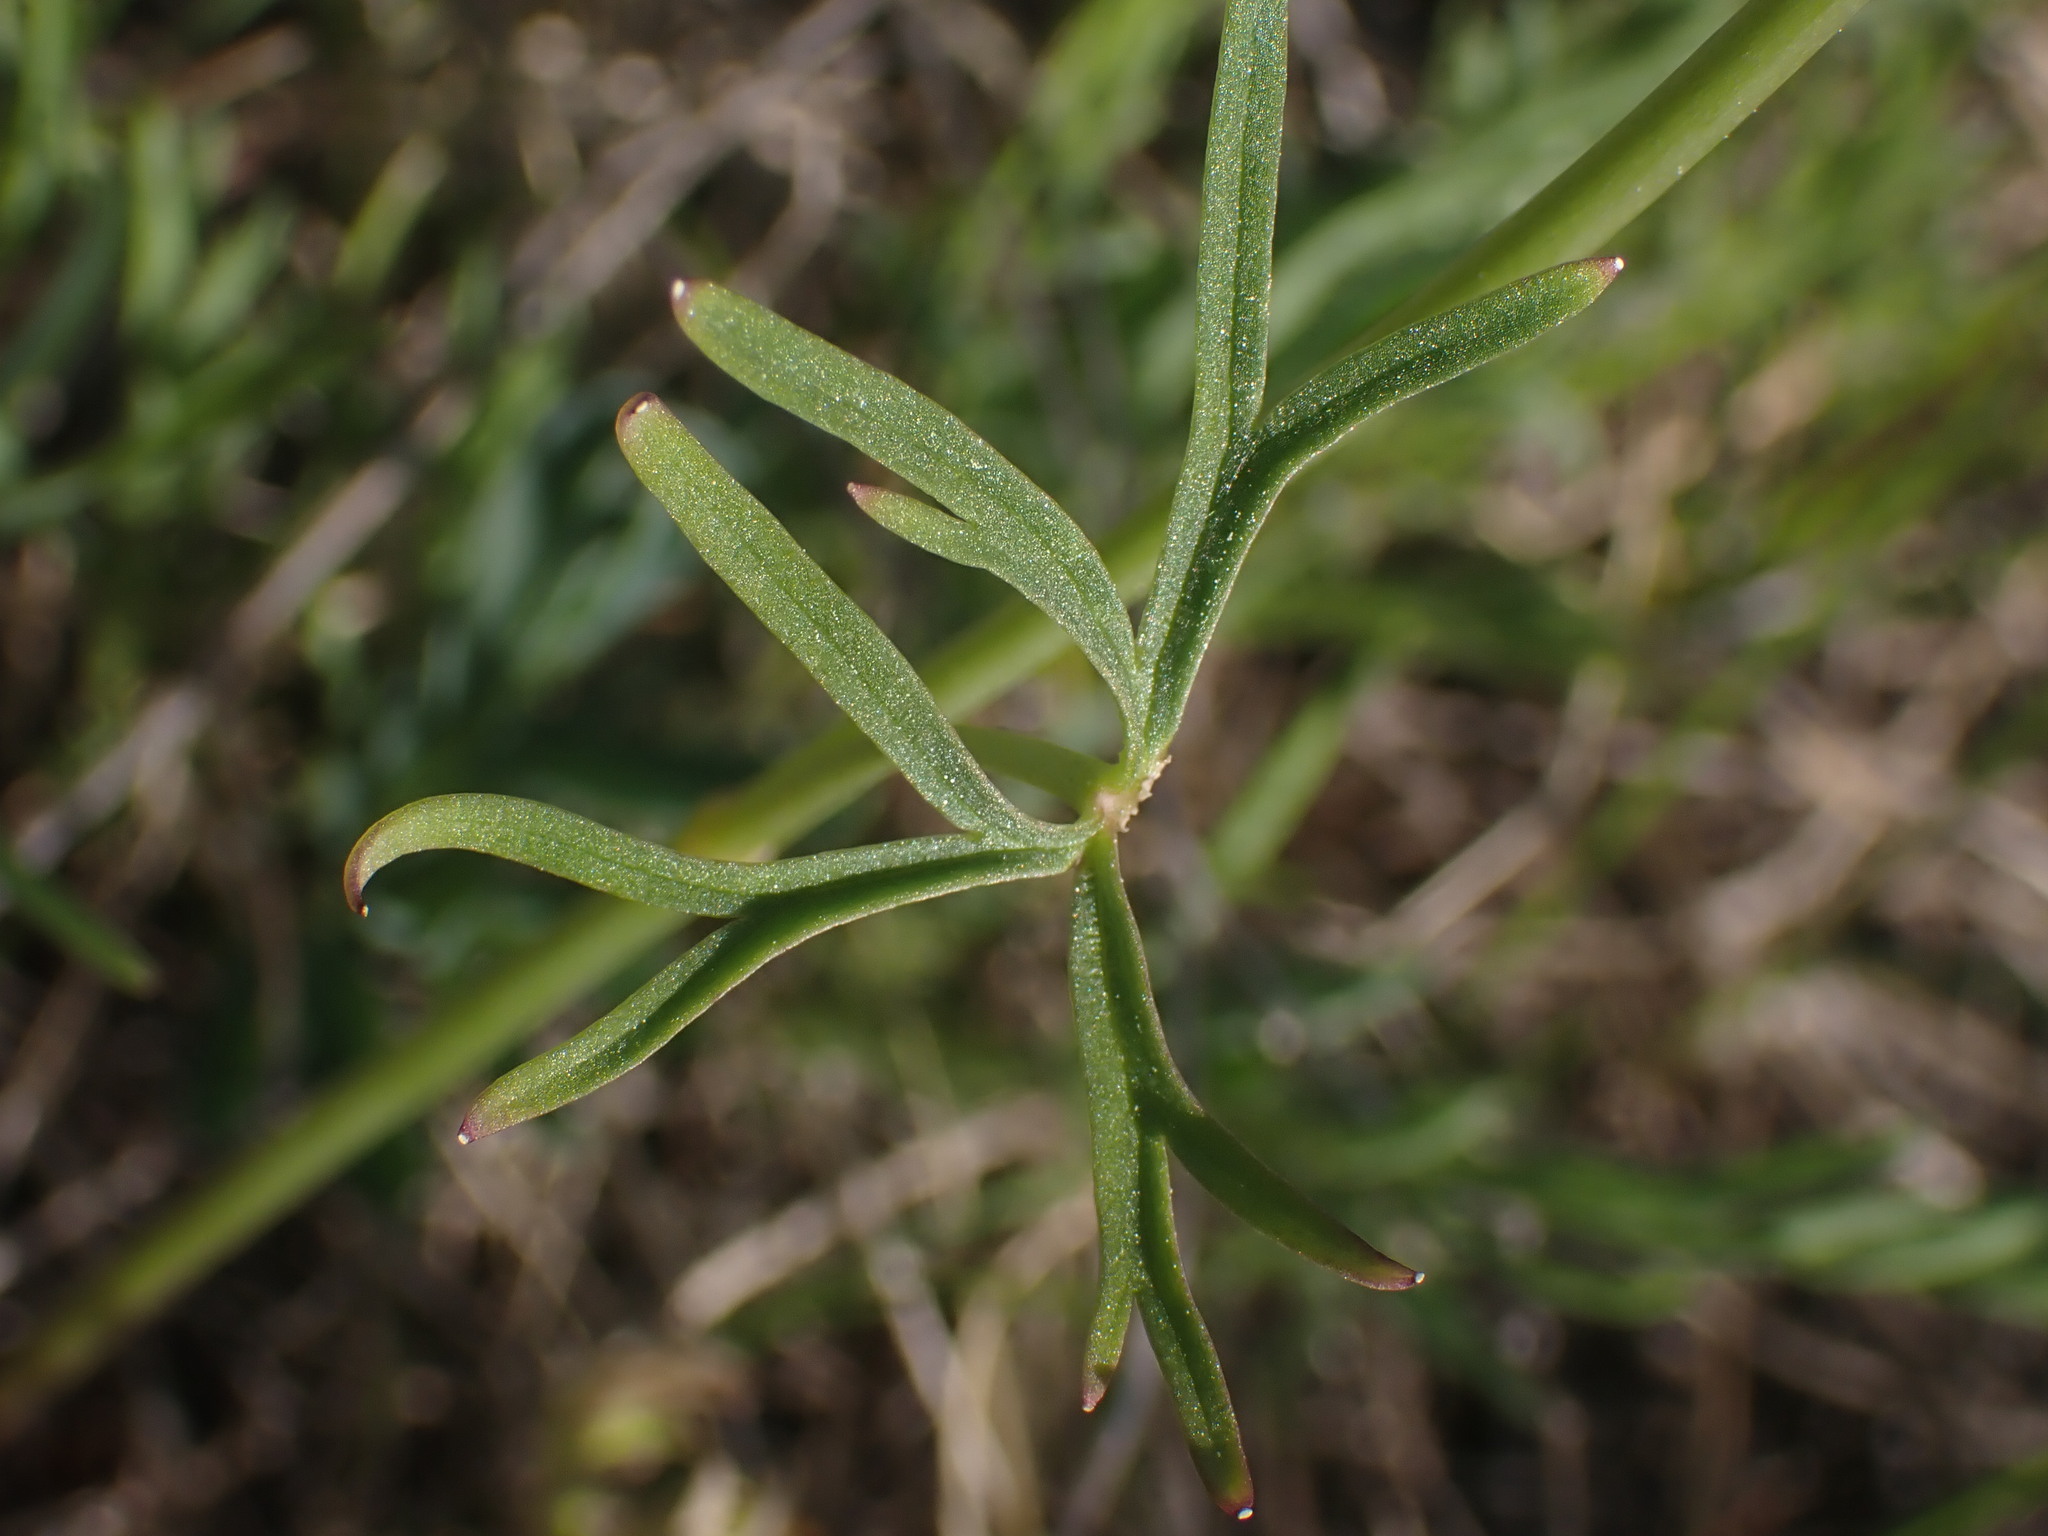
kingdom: Plantae
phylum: Tracheophyta
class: Magnoliopsida
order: Ranunculales
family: Ranunculaceae
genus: Delphinium
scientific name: Delphinium nuttallianum
